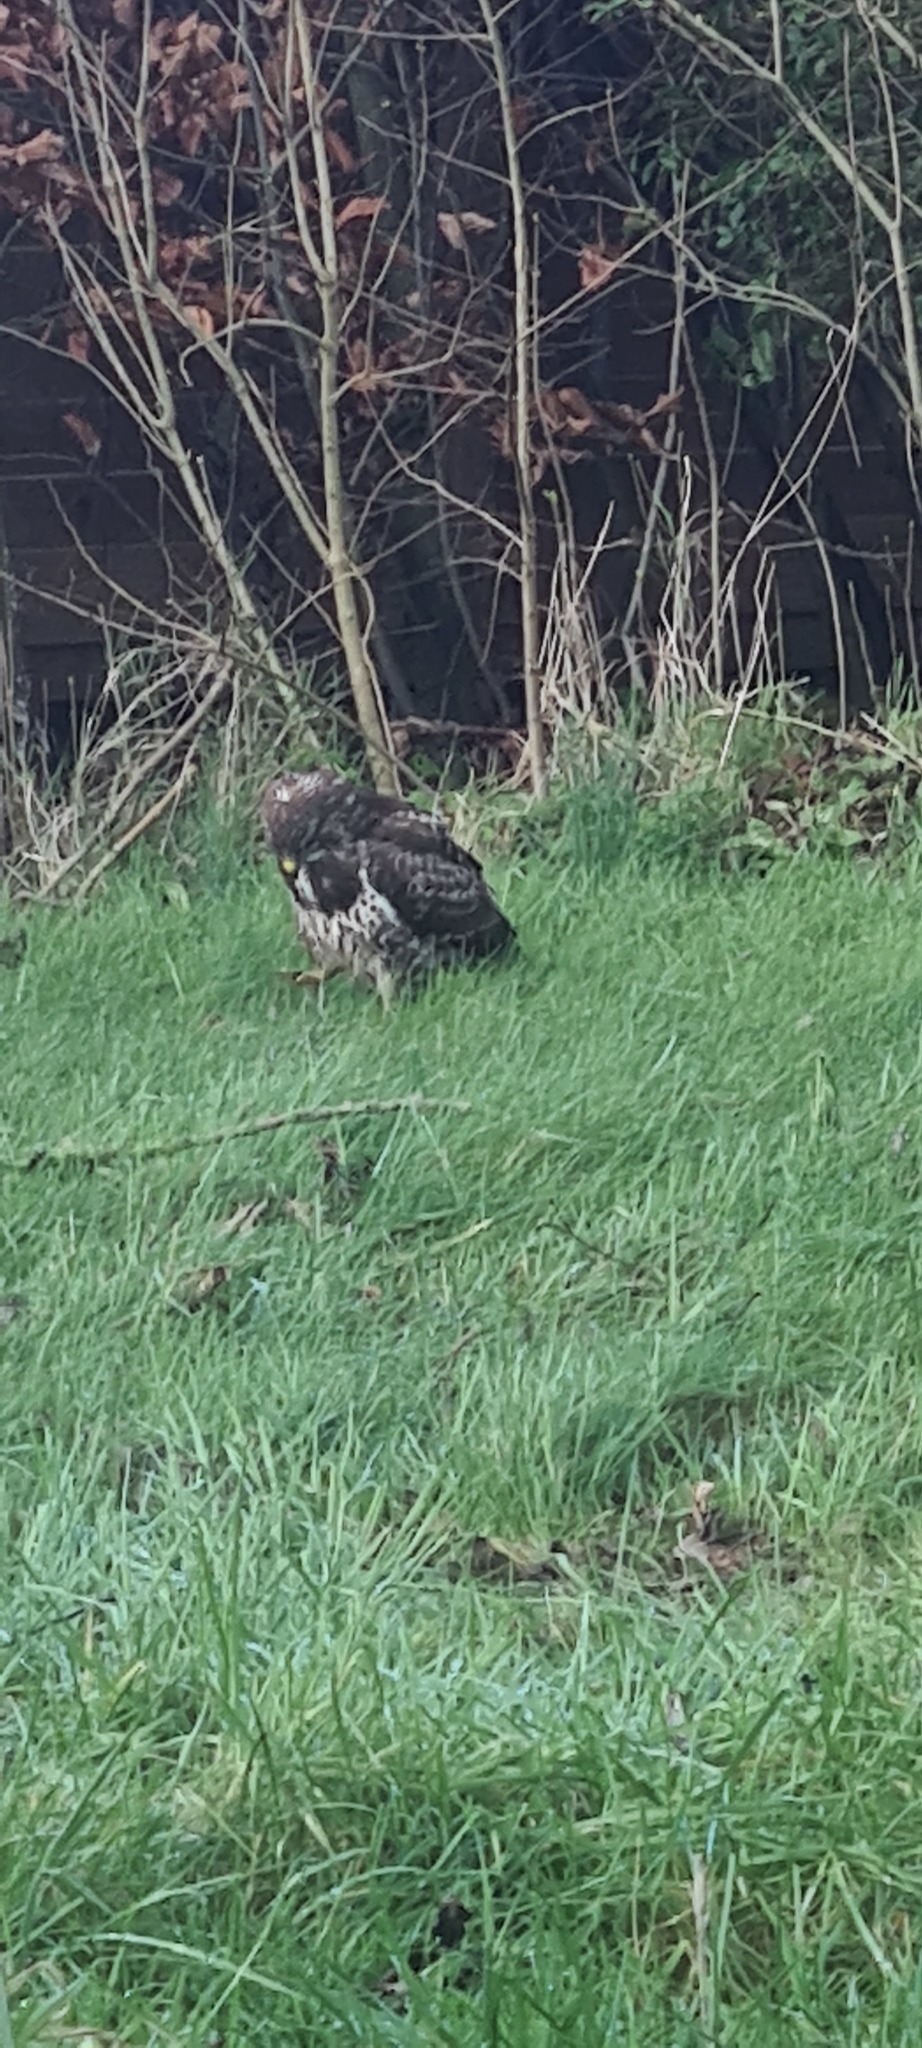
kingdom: Animalia
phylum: Chordata
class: Aves
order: Accipitriformes
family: Accipitridae
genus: Buteo
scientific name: Buteo buteo
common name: Common buzzard
